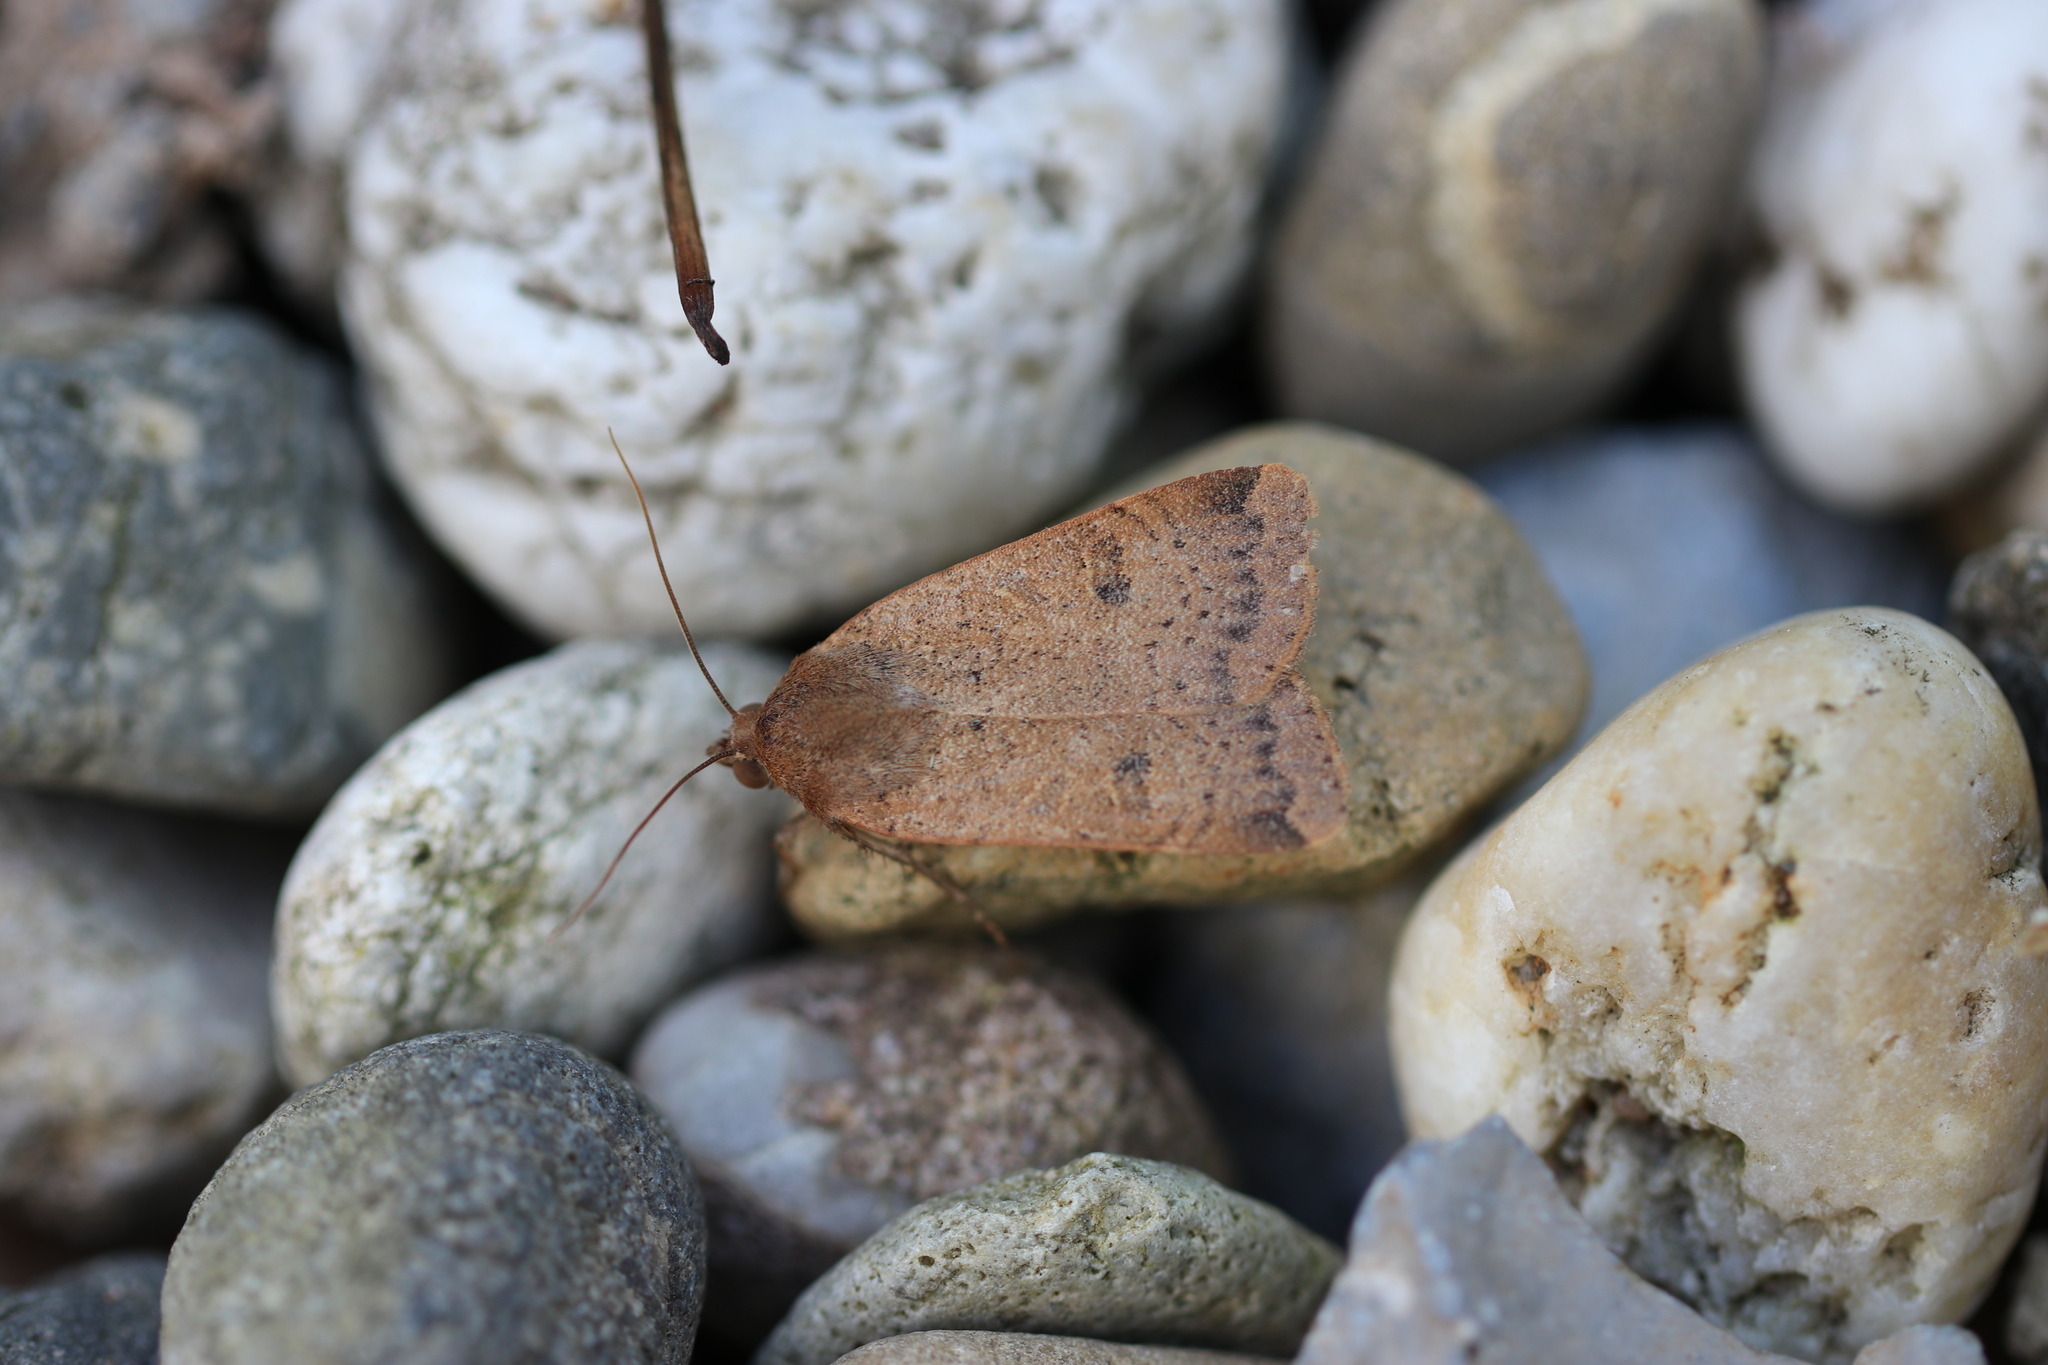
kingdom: Animalia
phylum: Arthropoda
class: Insecta
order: Lepidoptera
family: Noctuidae
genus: Noctua
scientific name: Noctua comes
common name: Lesser yellow underwing
